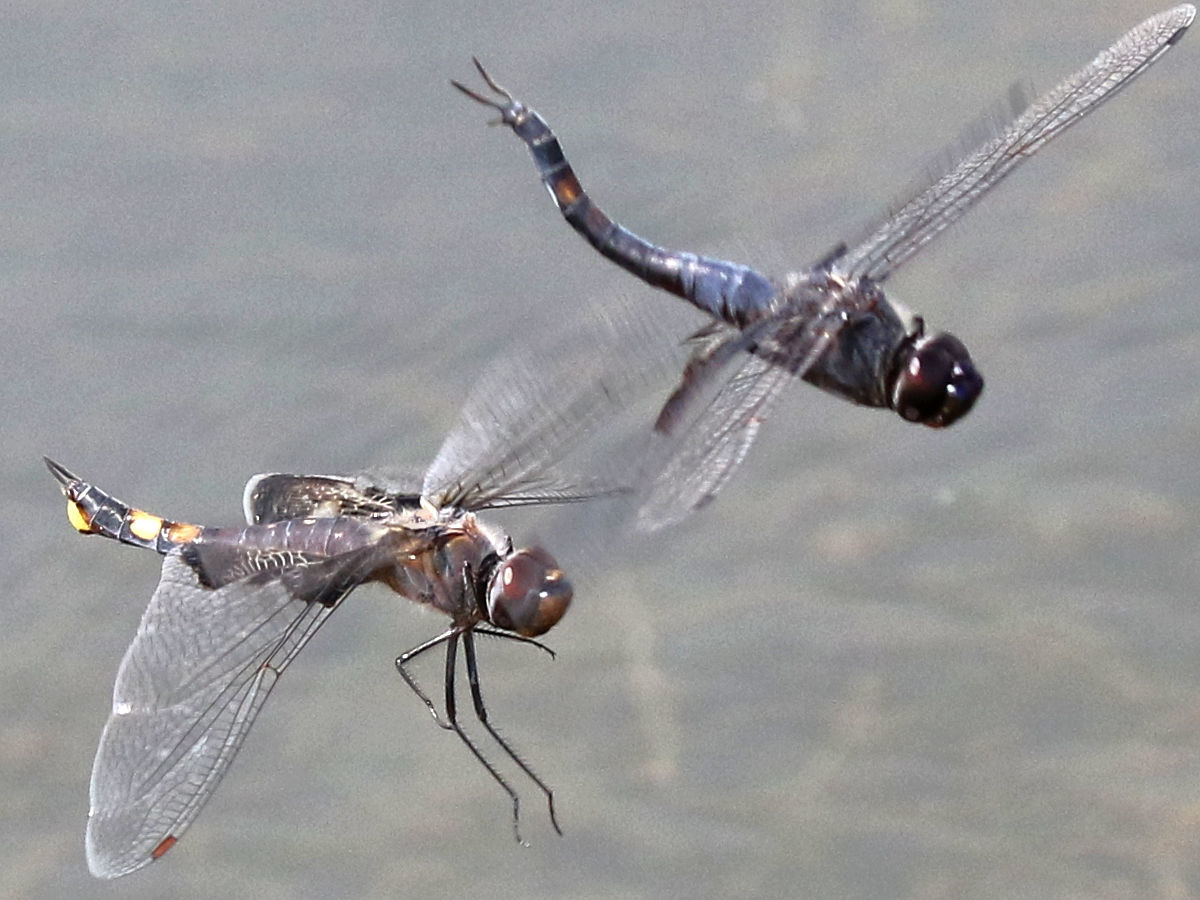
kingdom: Animalia
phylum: Arthropoda
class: Insecta
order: Odonata
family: Libellulidae
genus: Tramea
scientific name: Tramea lacerata
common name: Black saddlebags
